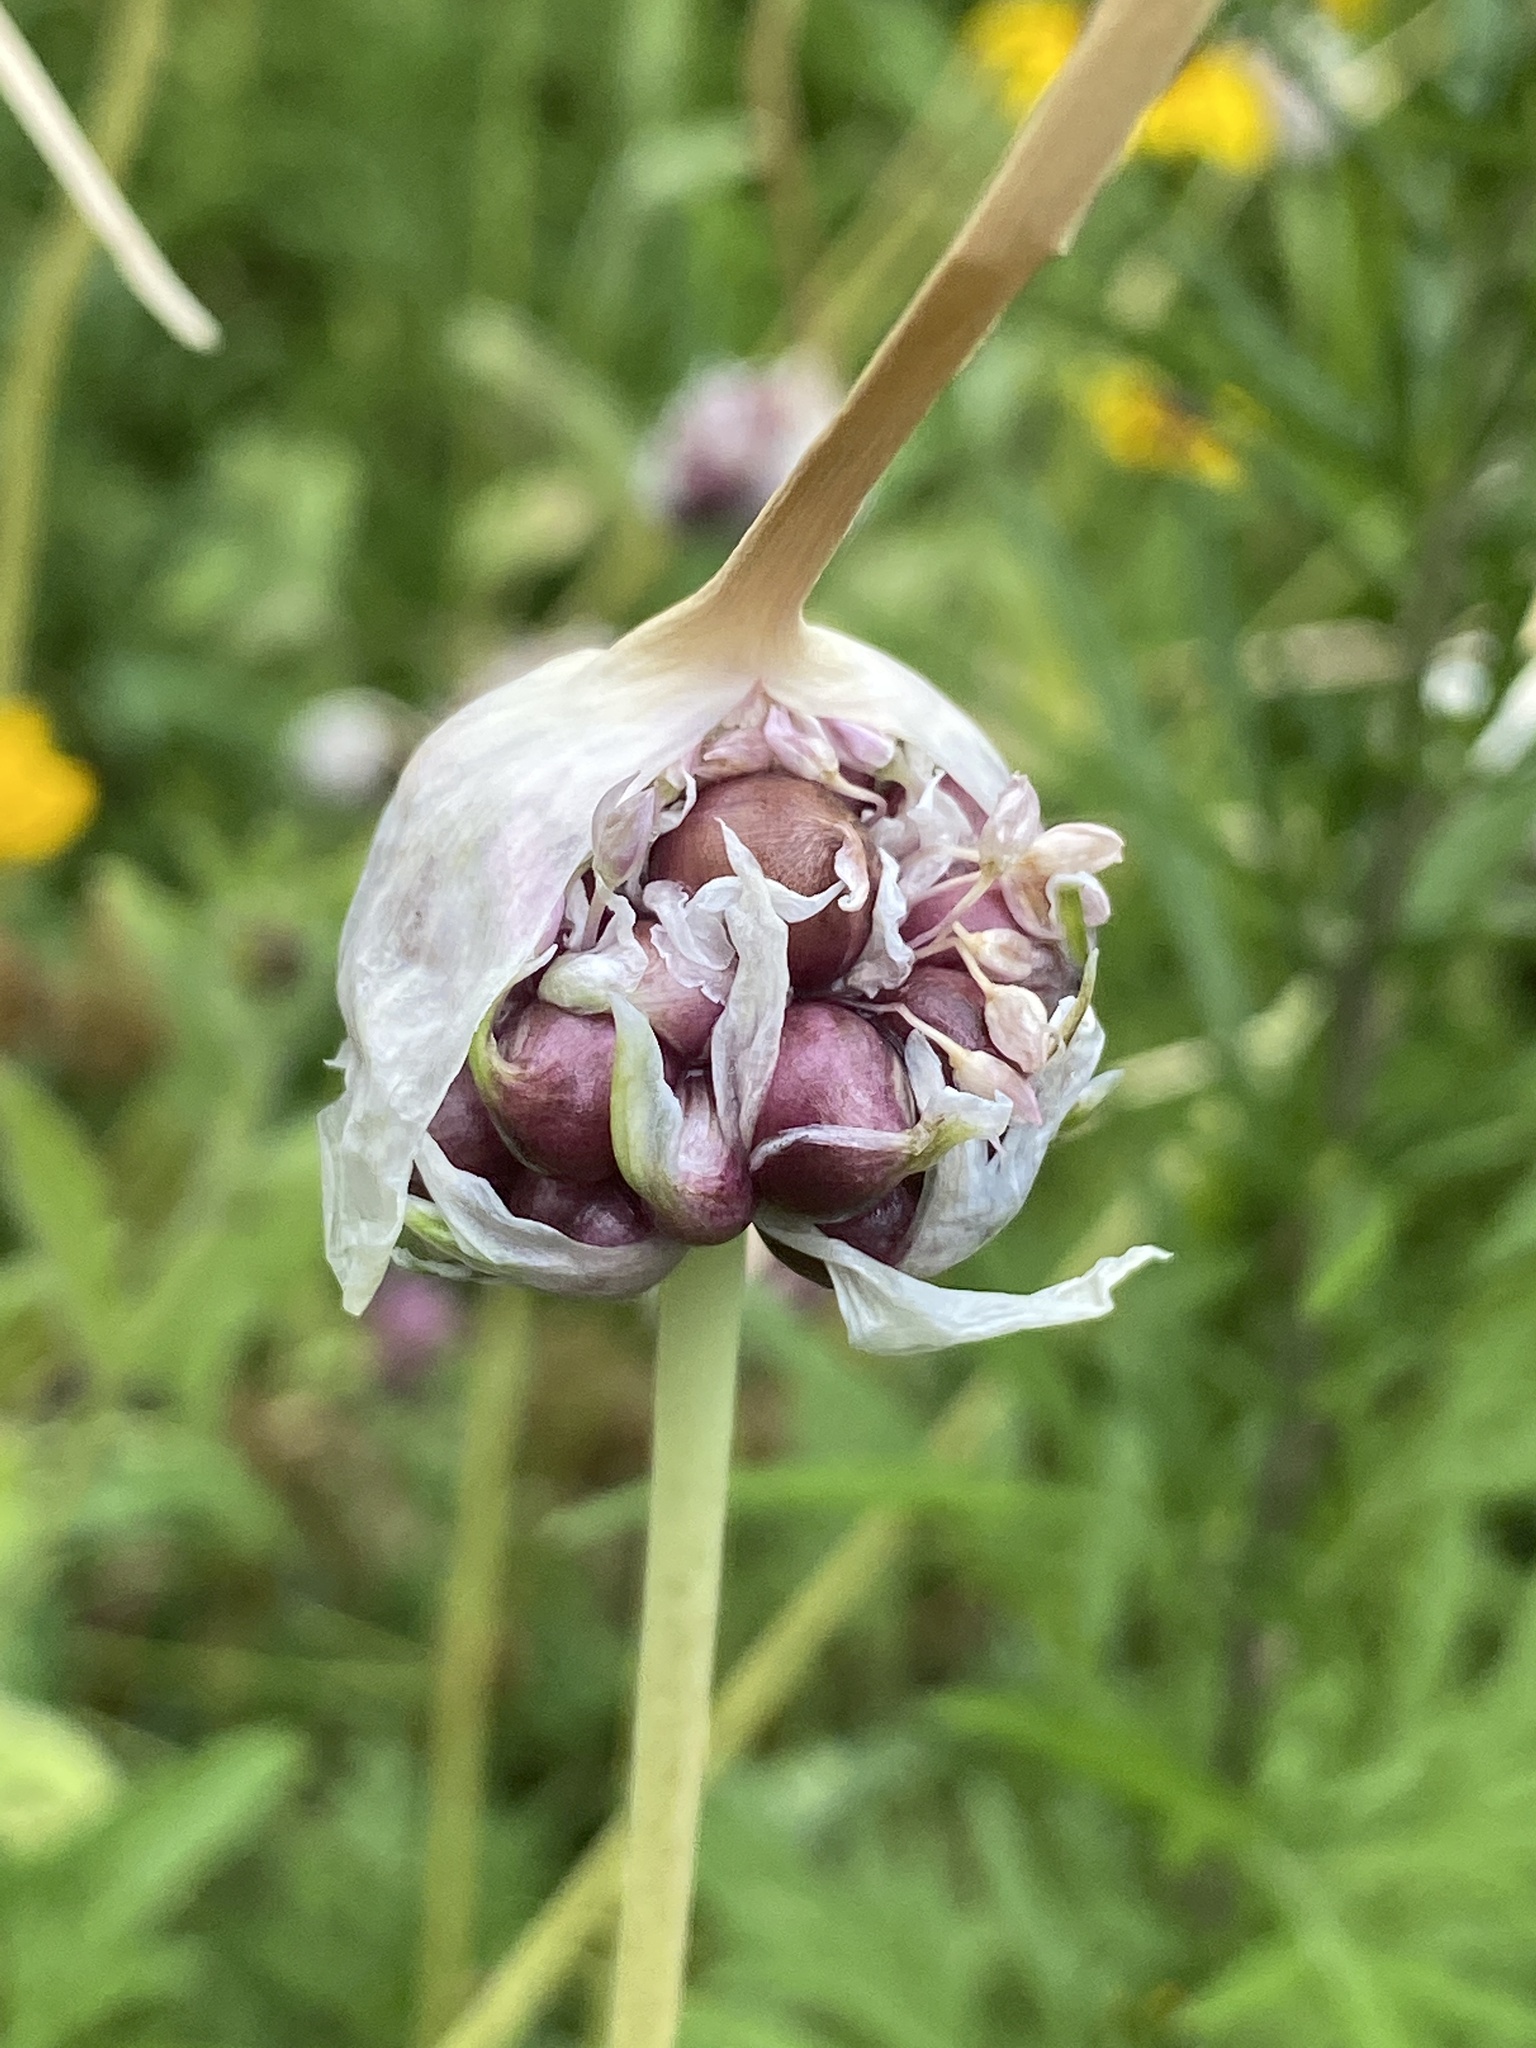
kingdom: Plantae
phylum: Tracheophyta
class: Liliopsida
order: Asparagales
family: Amaryllidaceae
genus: Allium
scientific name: Allium vineale
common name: Crow garlic
